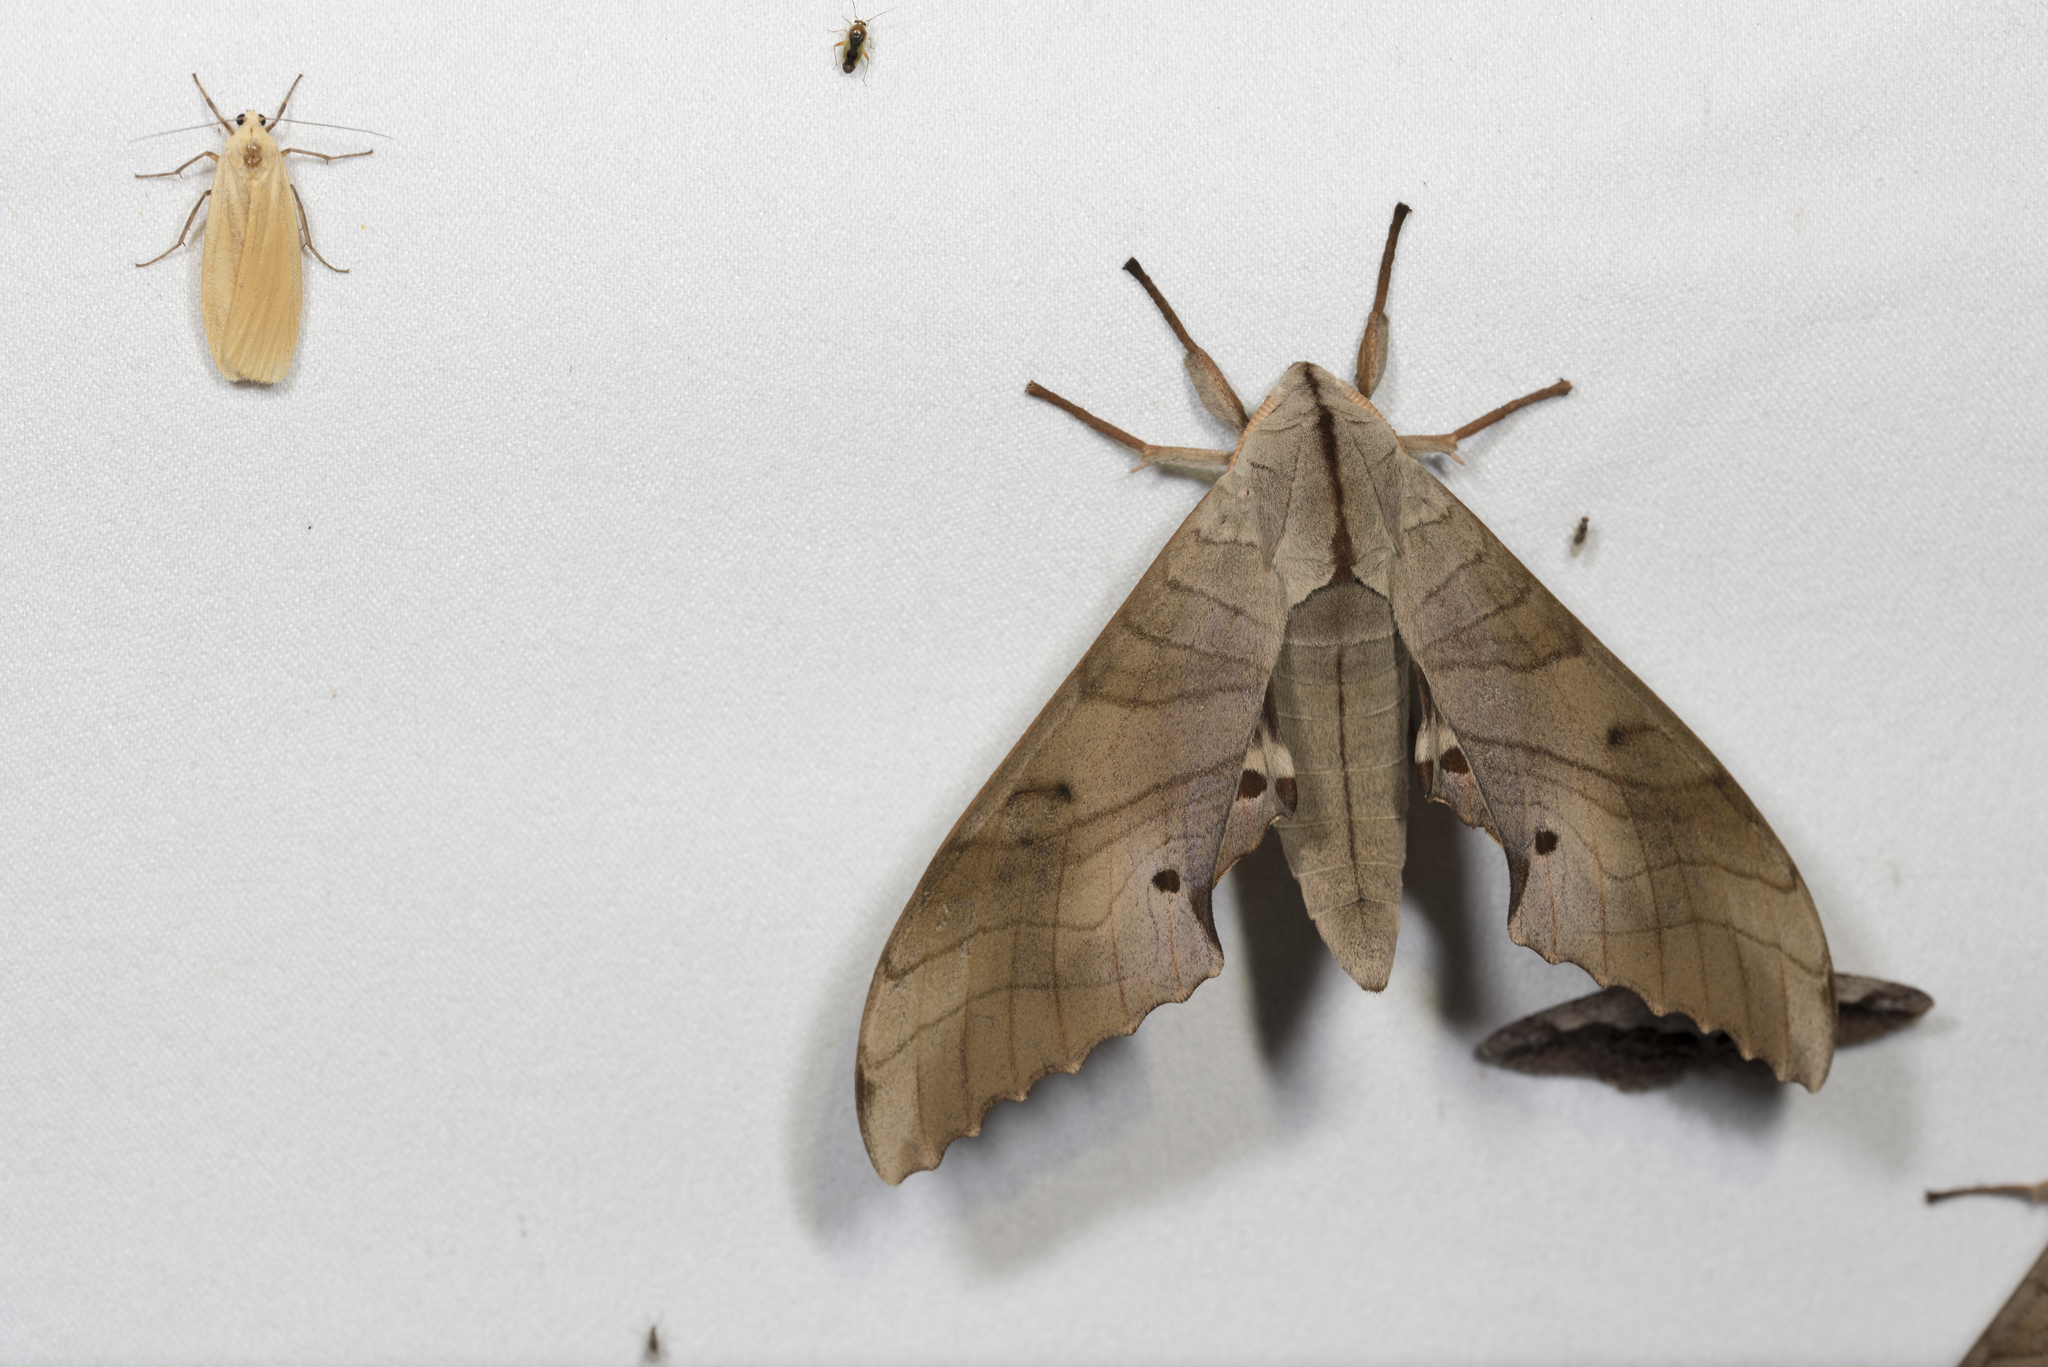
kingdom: Animalia
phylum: Arthropoda
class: Insecta
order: Lepidoptera
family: Sphingidae
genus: Marumba
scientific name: Marumba sperchius
